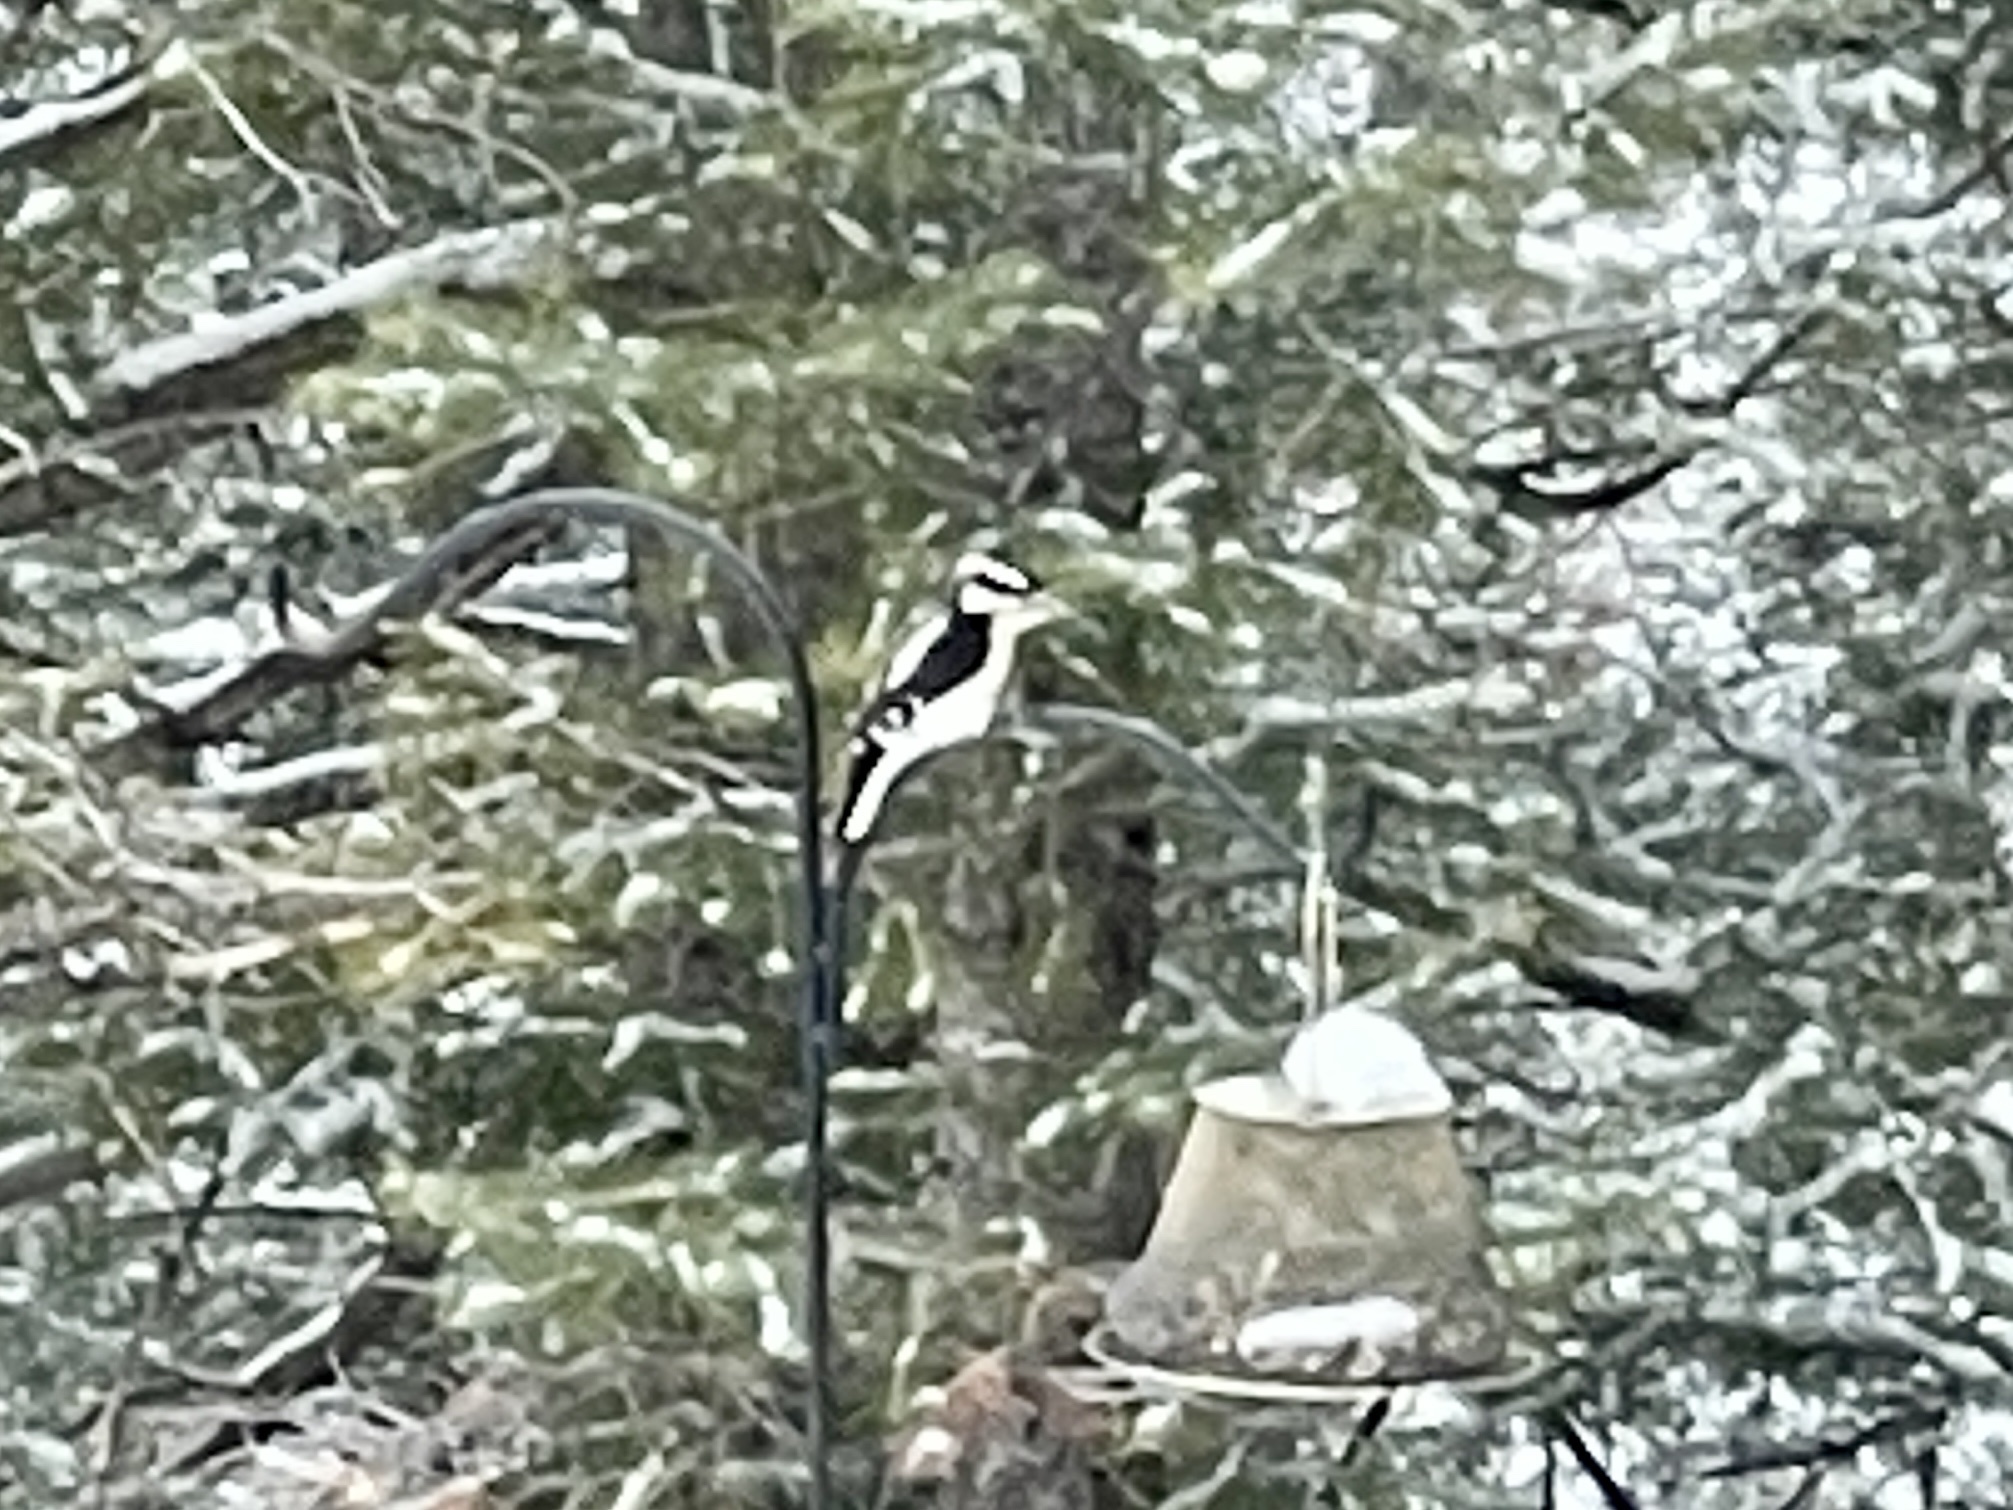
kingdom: Animalia
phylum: Chordata
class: Aves
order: Piciformes
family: Picidae
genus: Leuconotopicus
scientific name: Leuconotopicus villosus
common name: Hairy woodpecker
